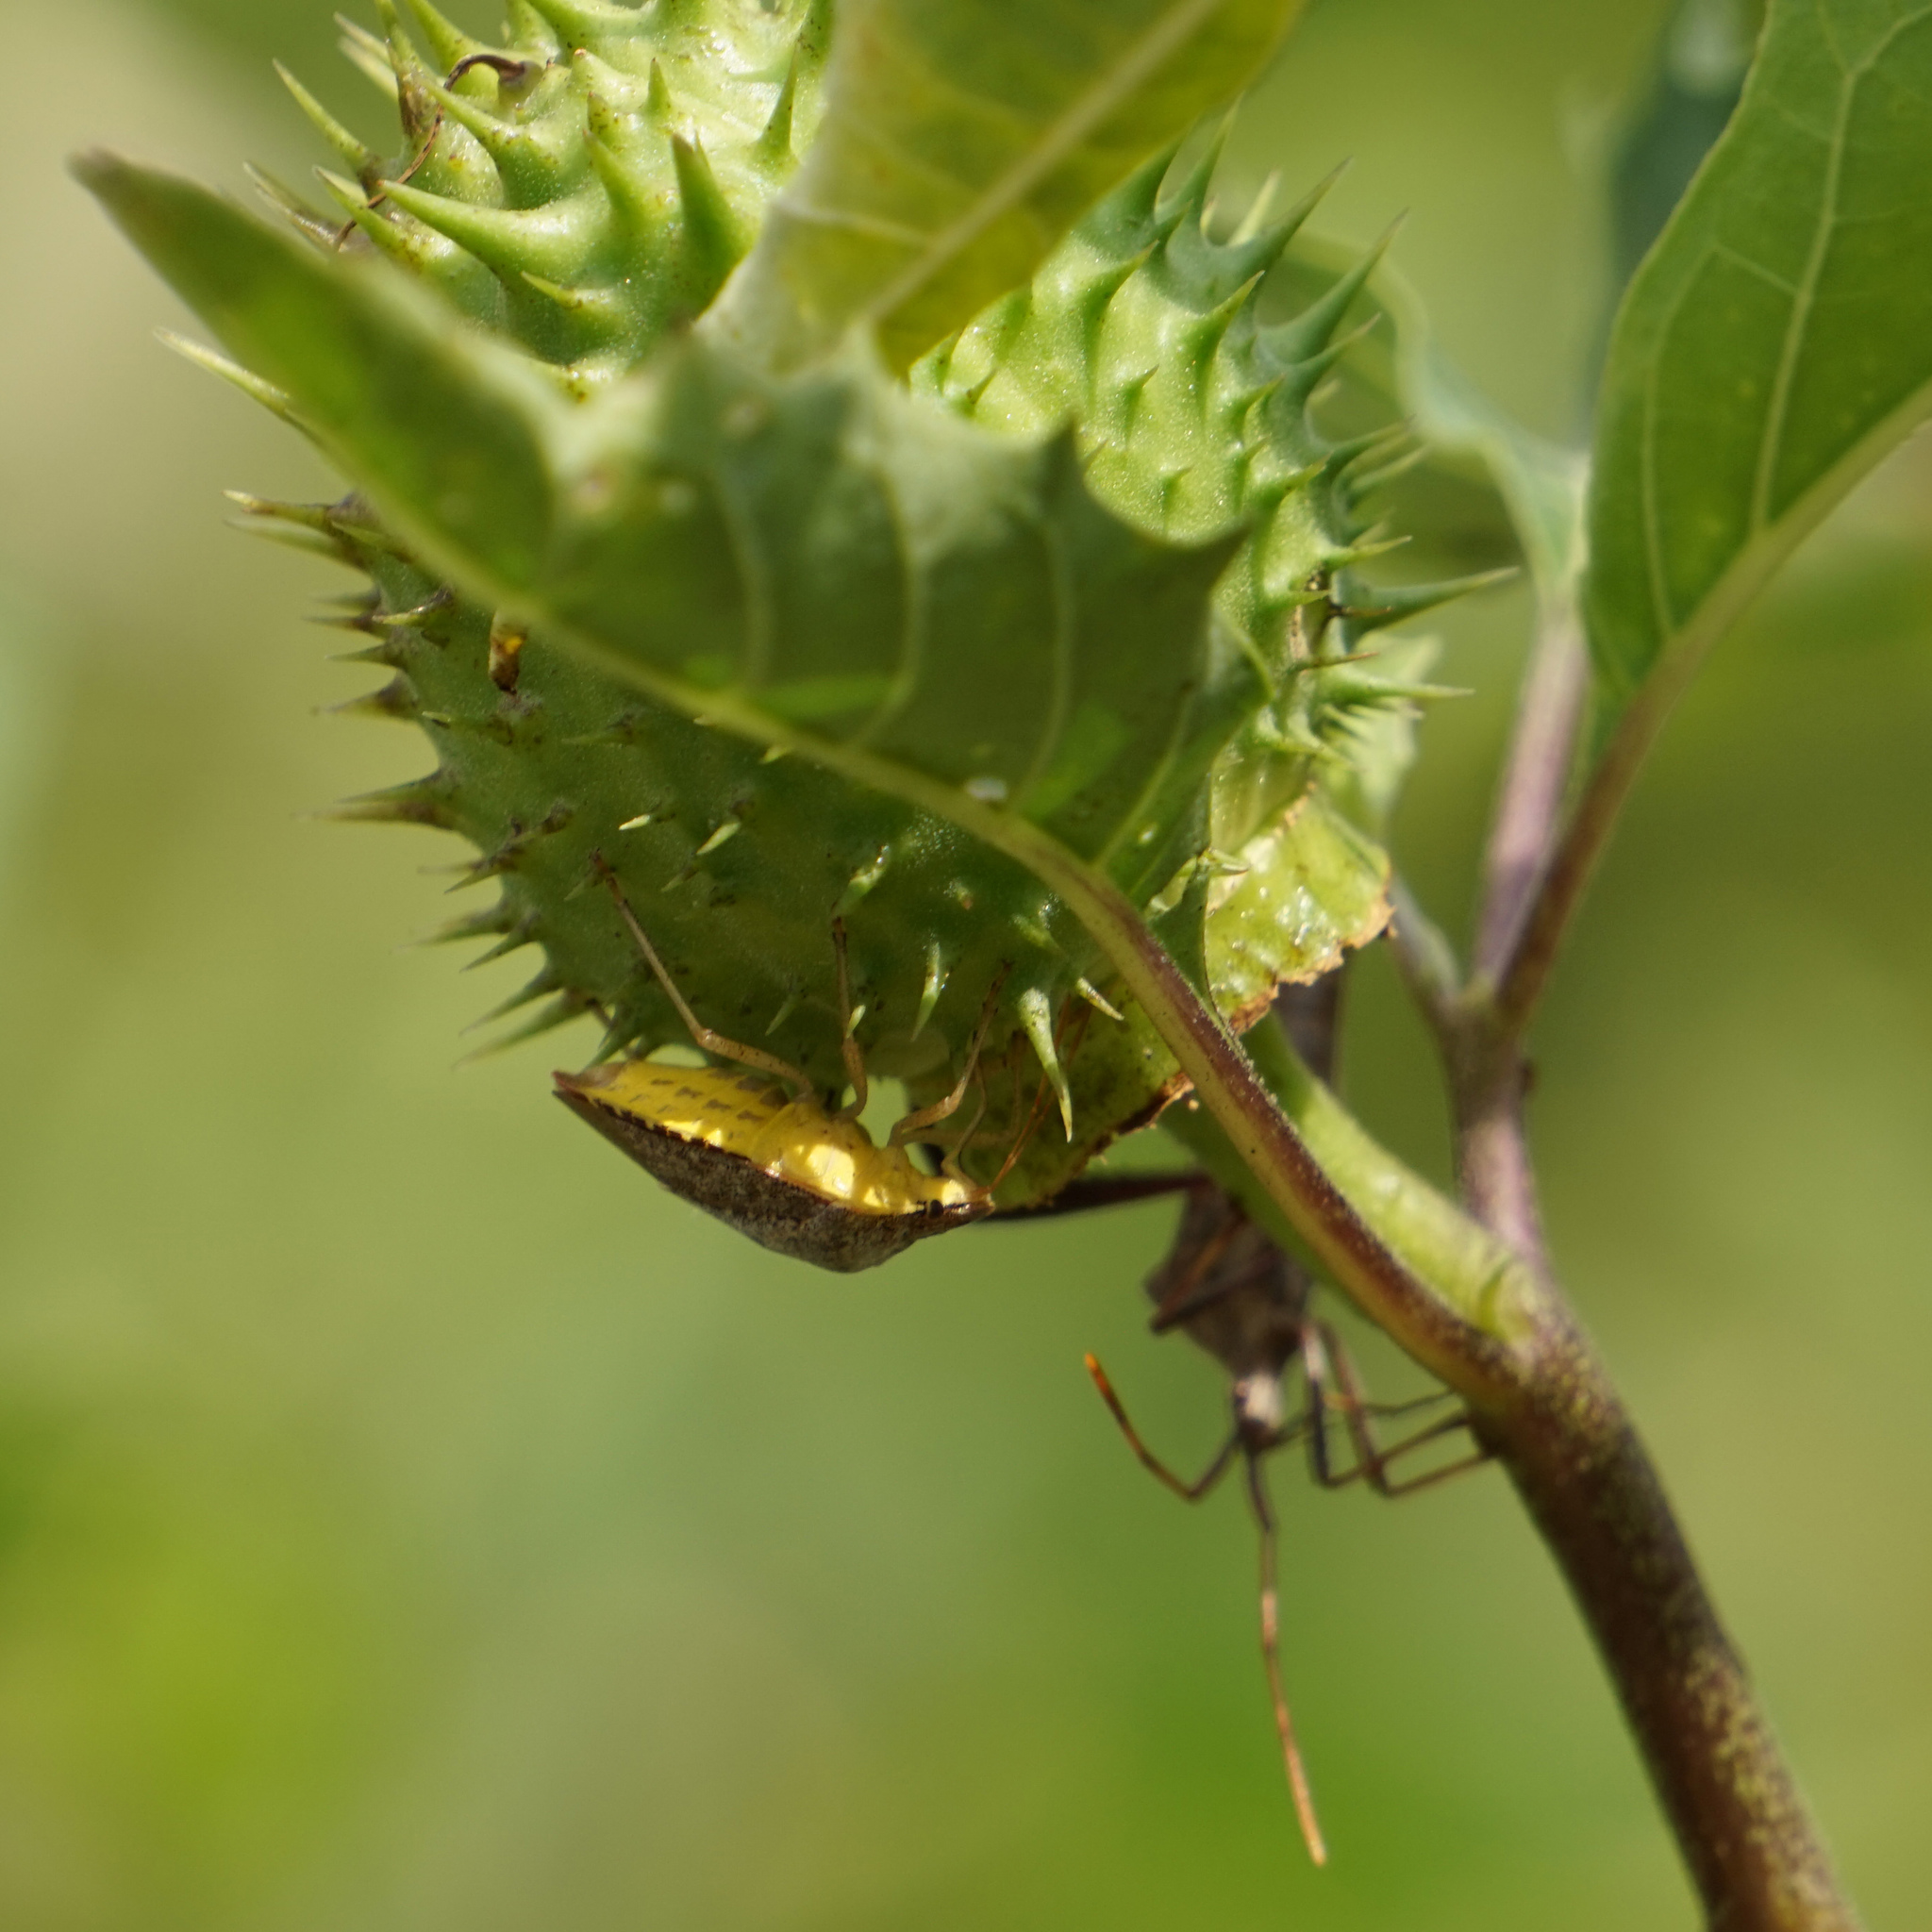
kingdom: Animalia
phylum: Arthropoda
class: Insecta
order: Hemiptera
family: Pentatomidae
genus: Euschistus
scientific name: Euschistus servus
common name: Brown stink bug
